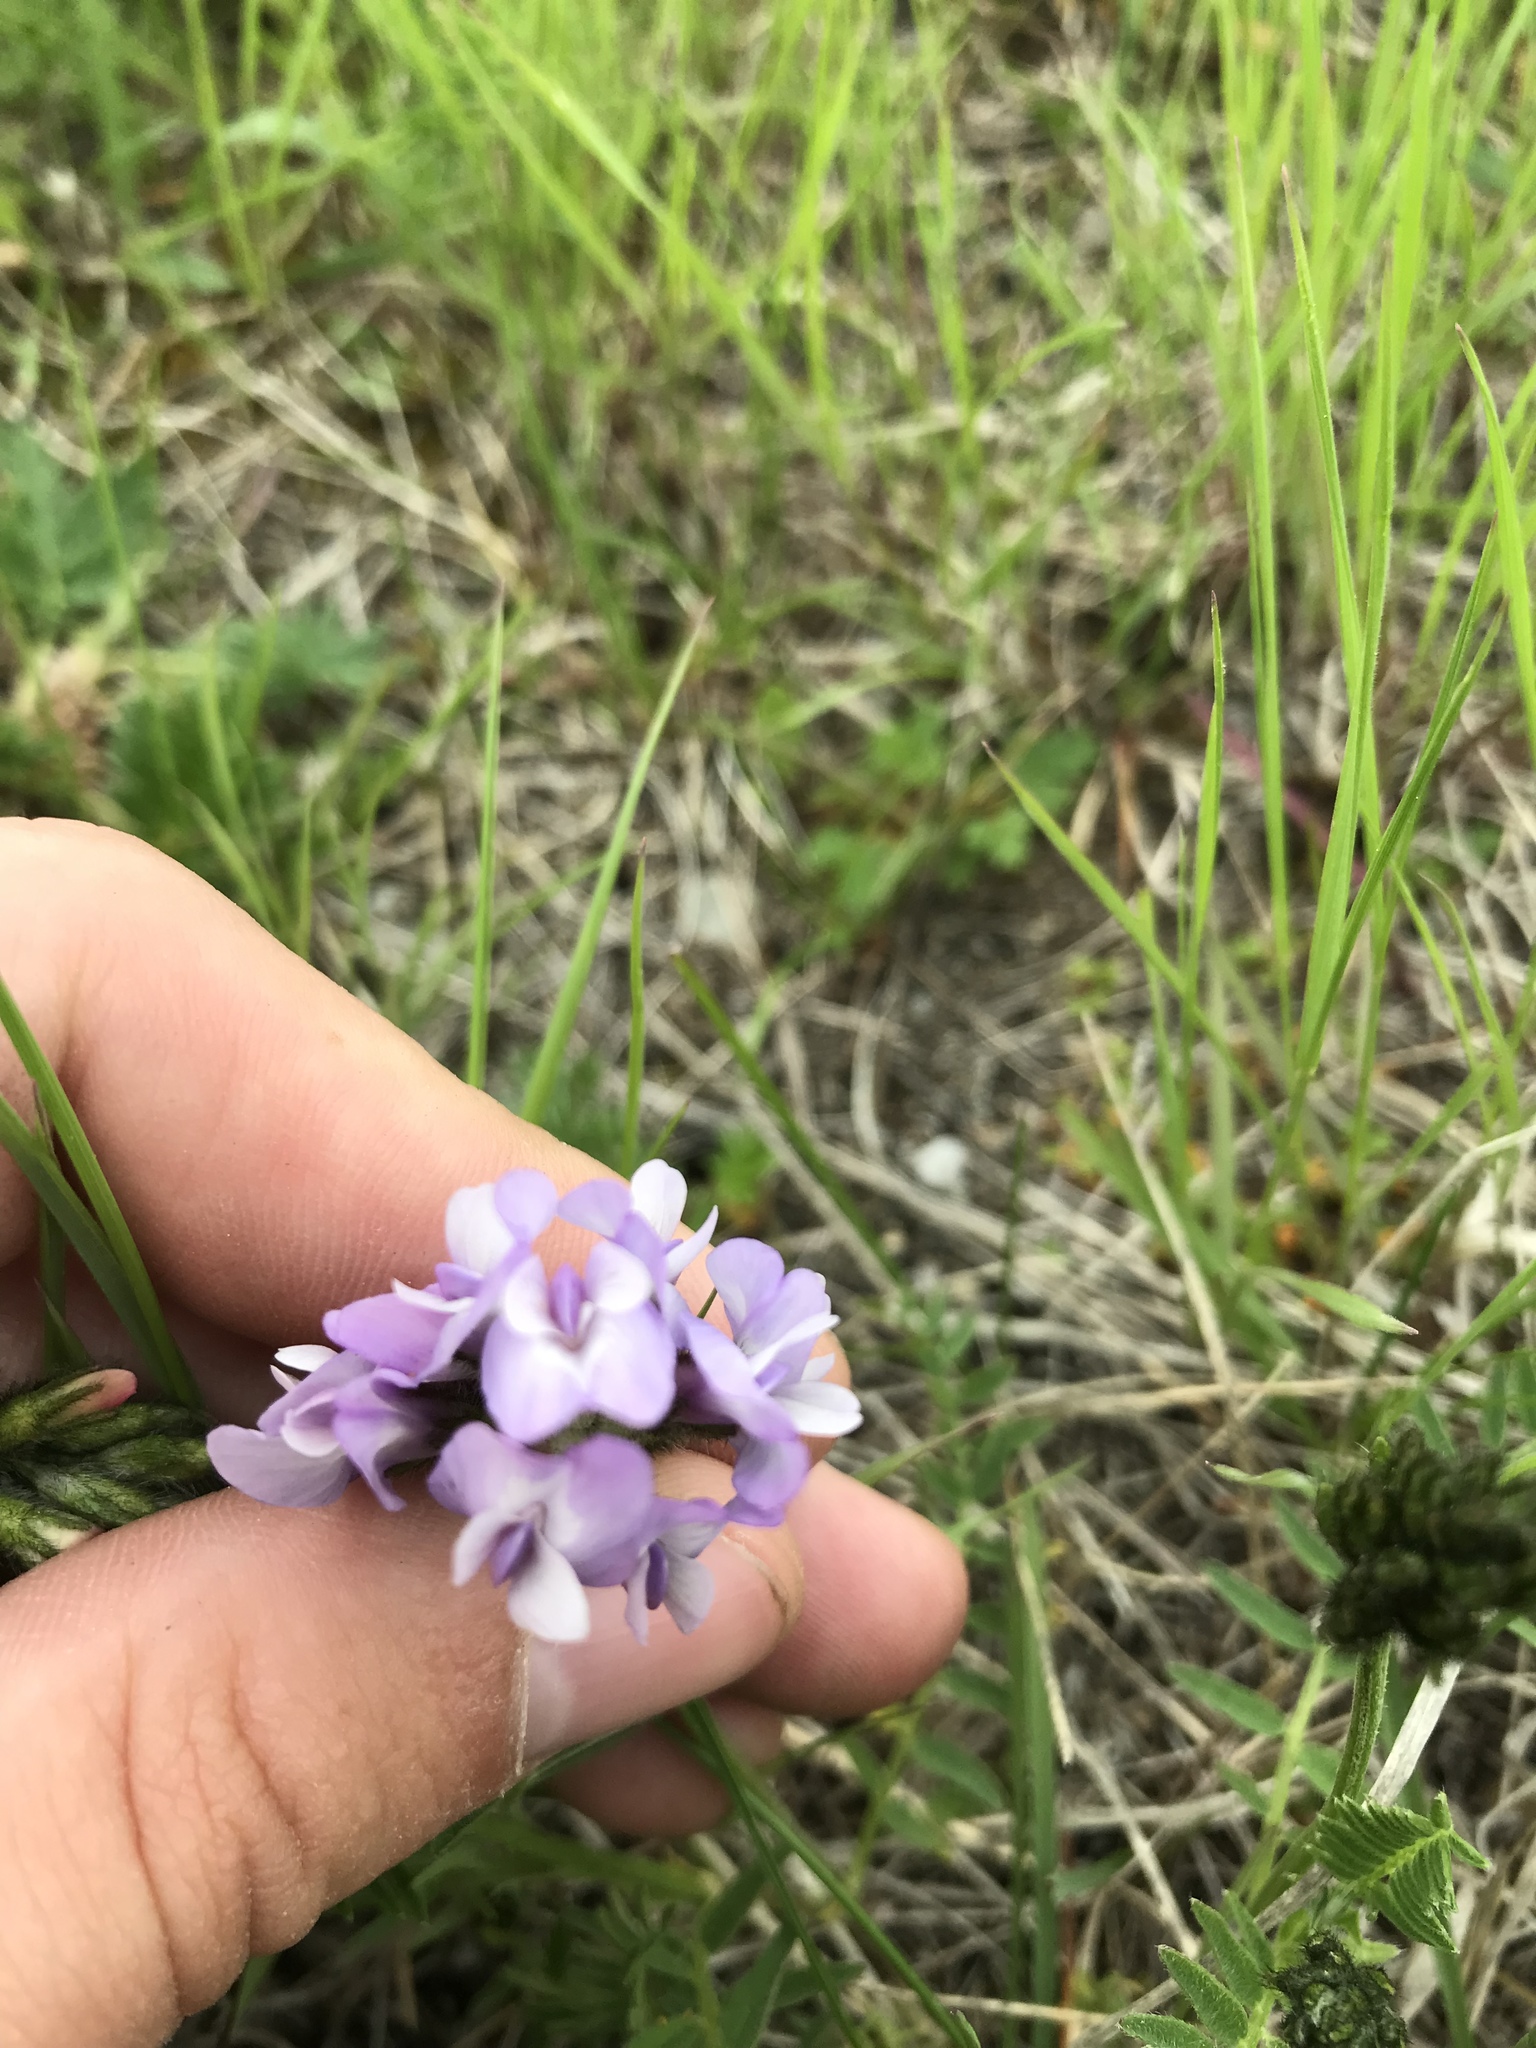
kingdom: Plantae
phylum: Tracheophyta
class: Magnoliopsida
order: Fabales
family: Fabaceae
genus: Astragalus
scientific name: Astragalus agrestis
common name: Field milk-vetch
